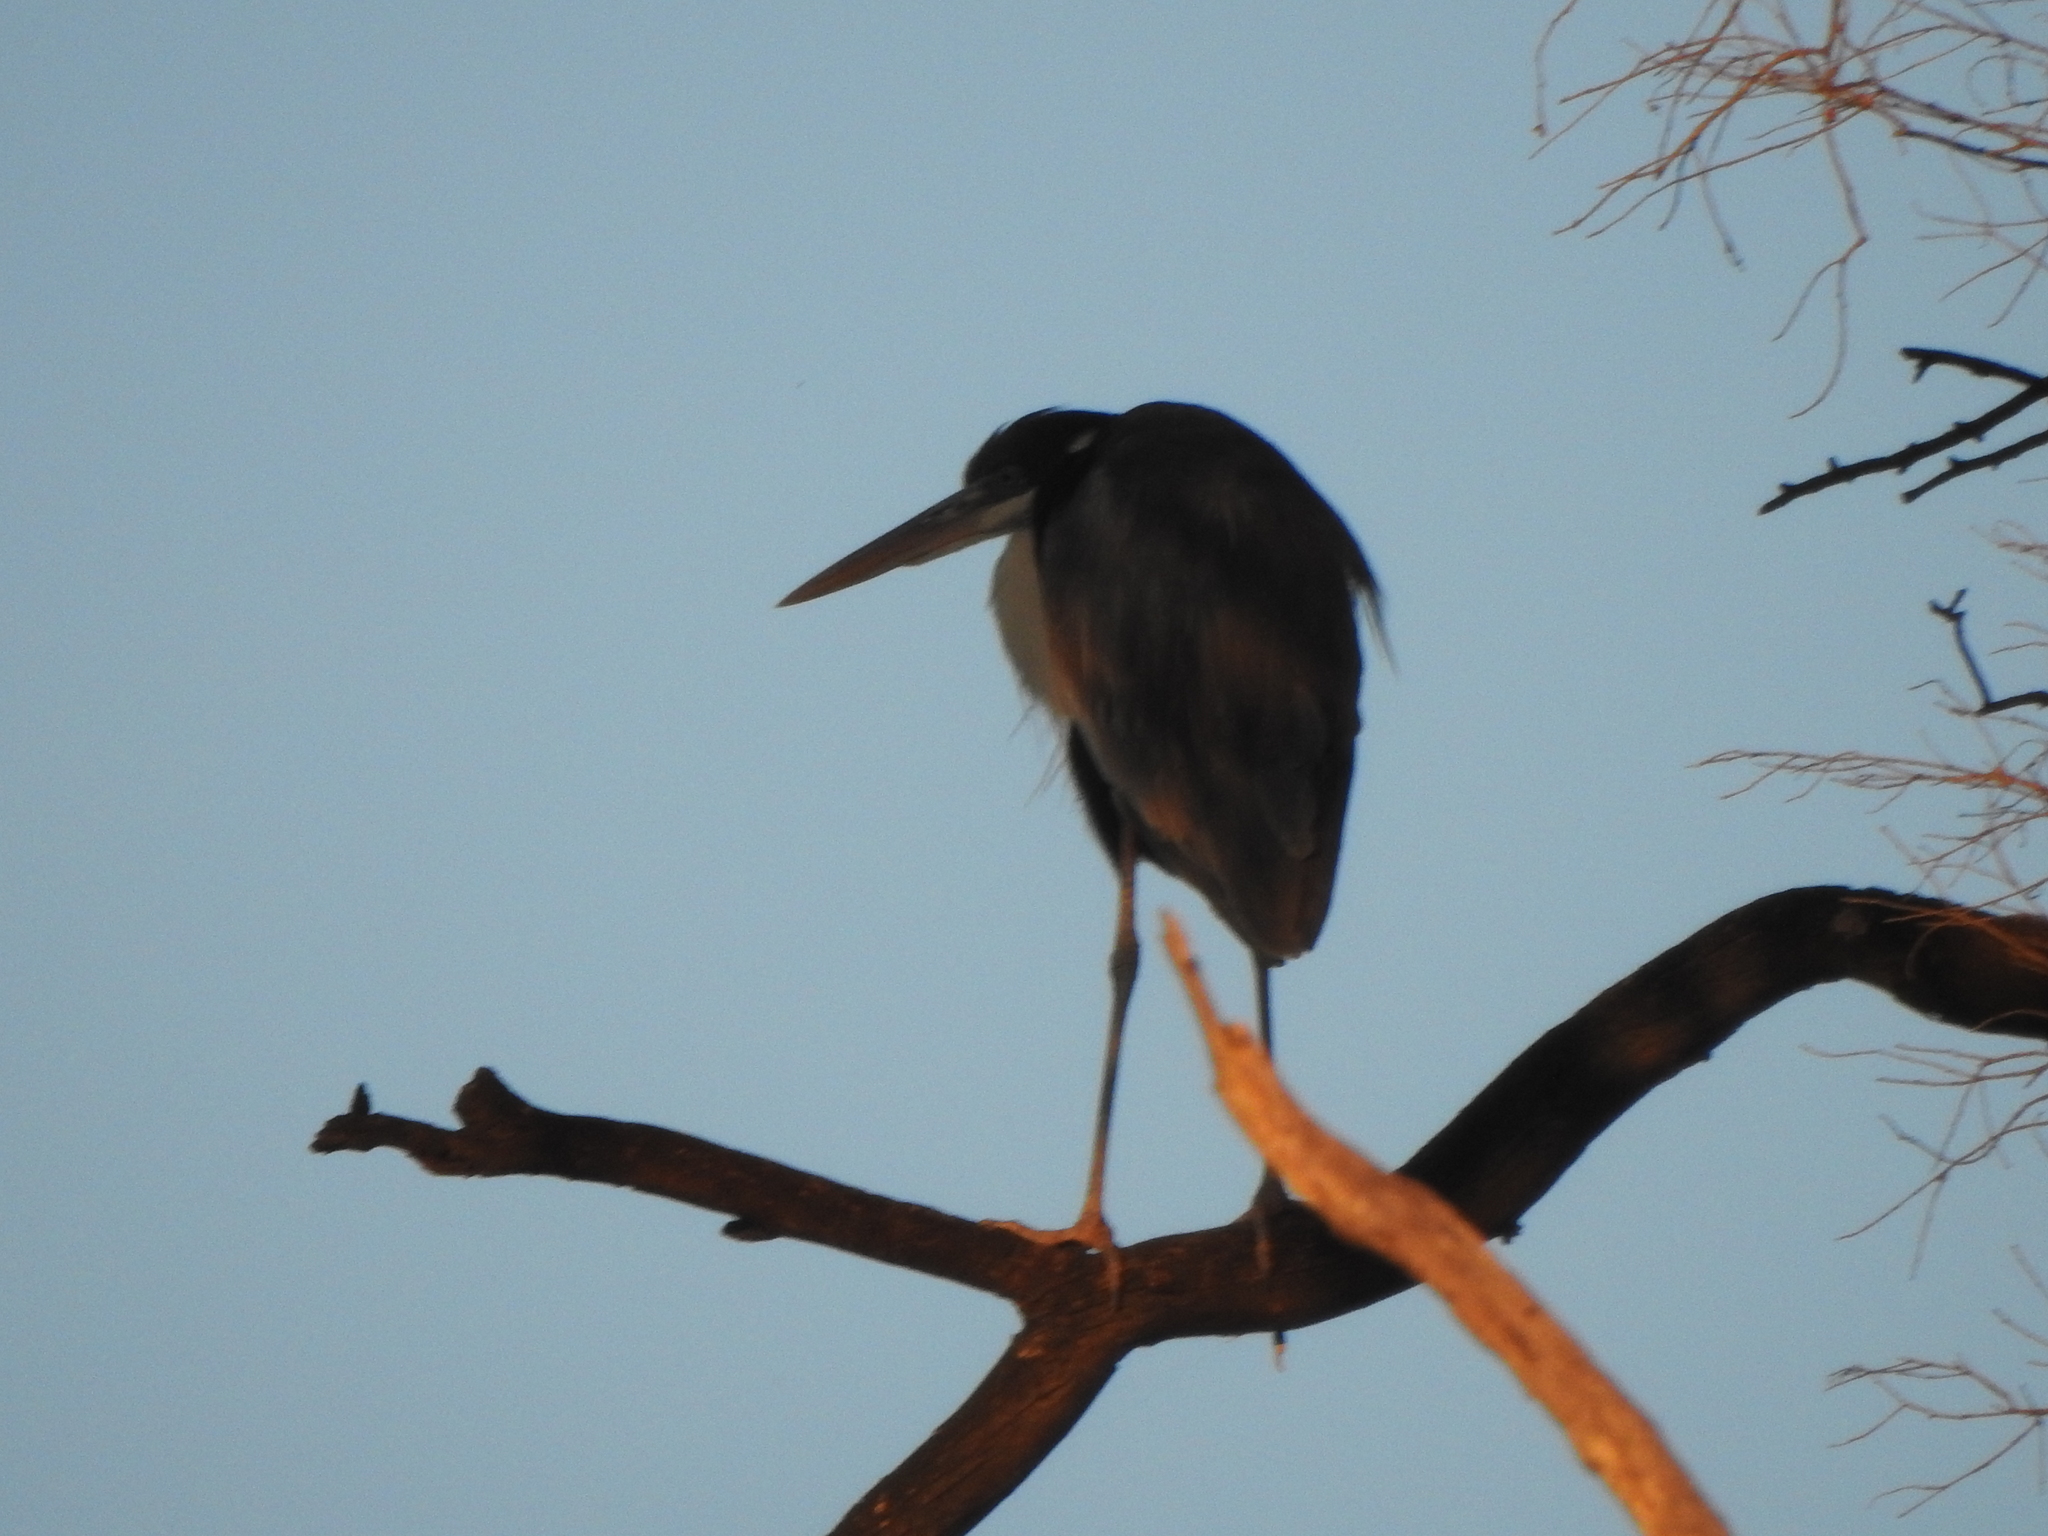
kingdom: Animalia
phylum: Chordata
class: Aves
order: Pelecaniformes
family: Ardeidae
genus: Ardea
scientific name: Ardea cocoi
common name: Cocoi heron
